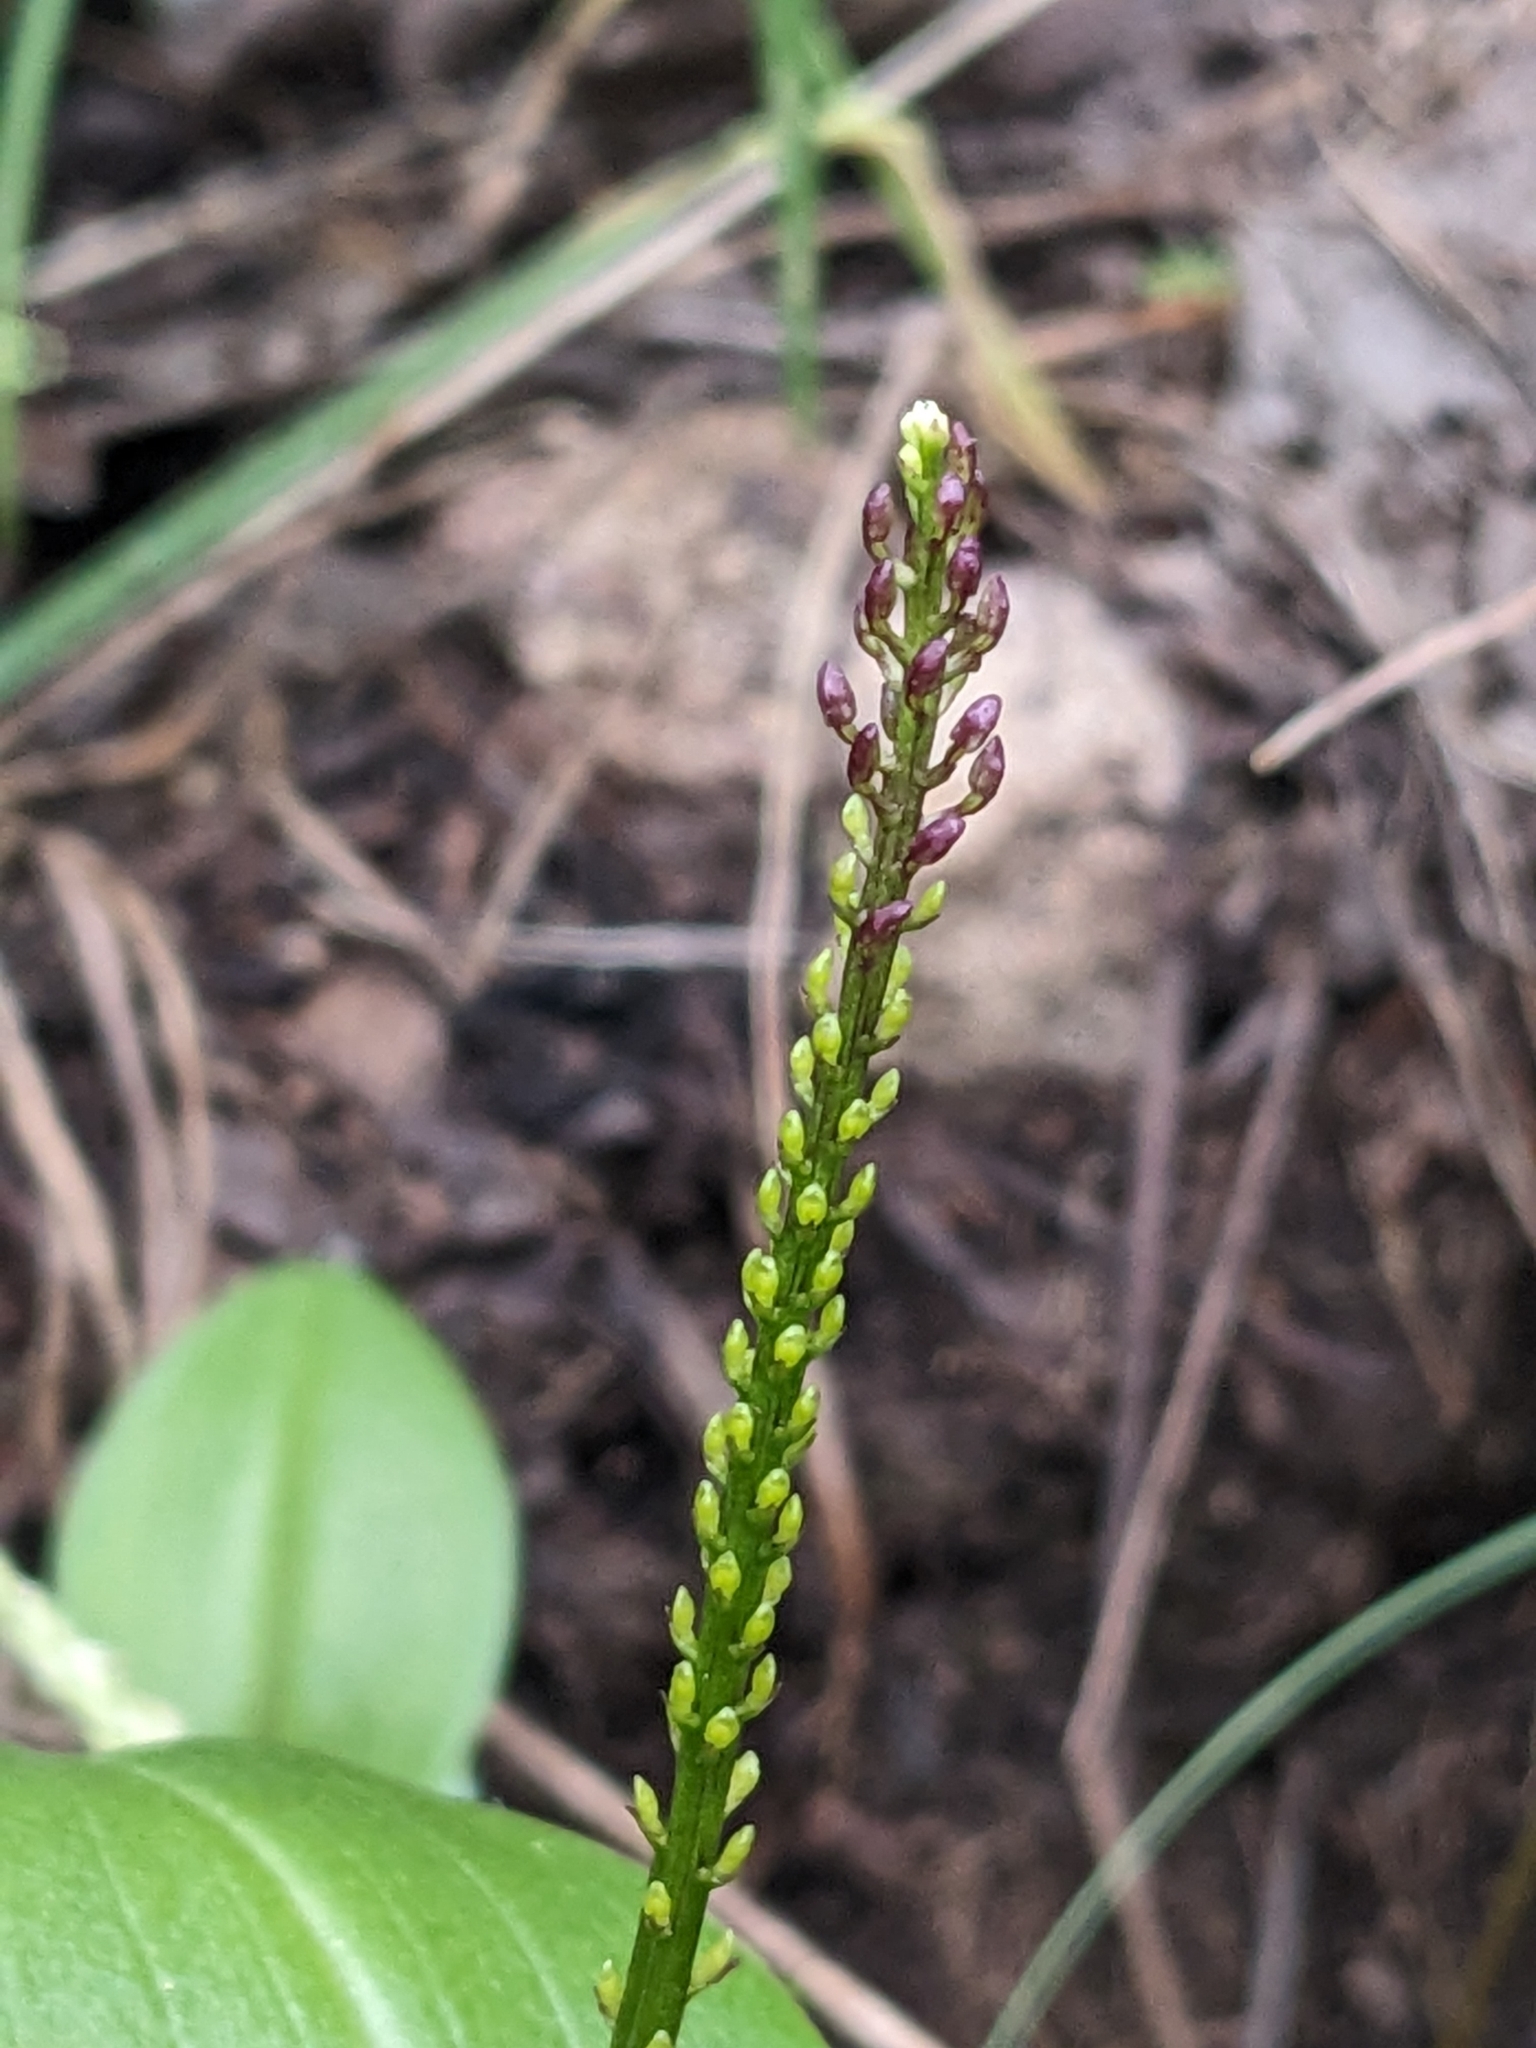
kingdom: Plantae
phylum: Tracheophyta
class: Liliopsida
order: Asparagales
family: Orchidaceae
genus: Tamayorkis
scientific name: Tamayorkis porphyrea
